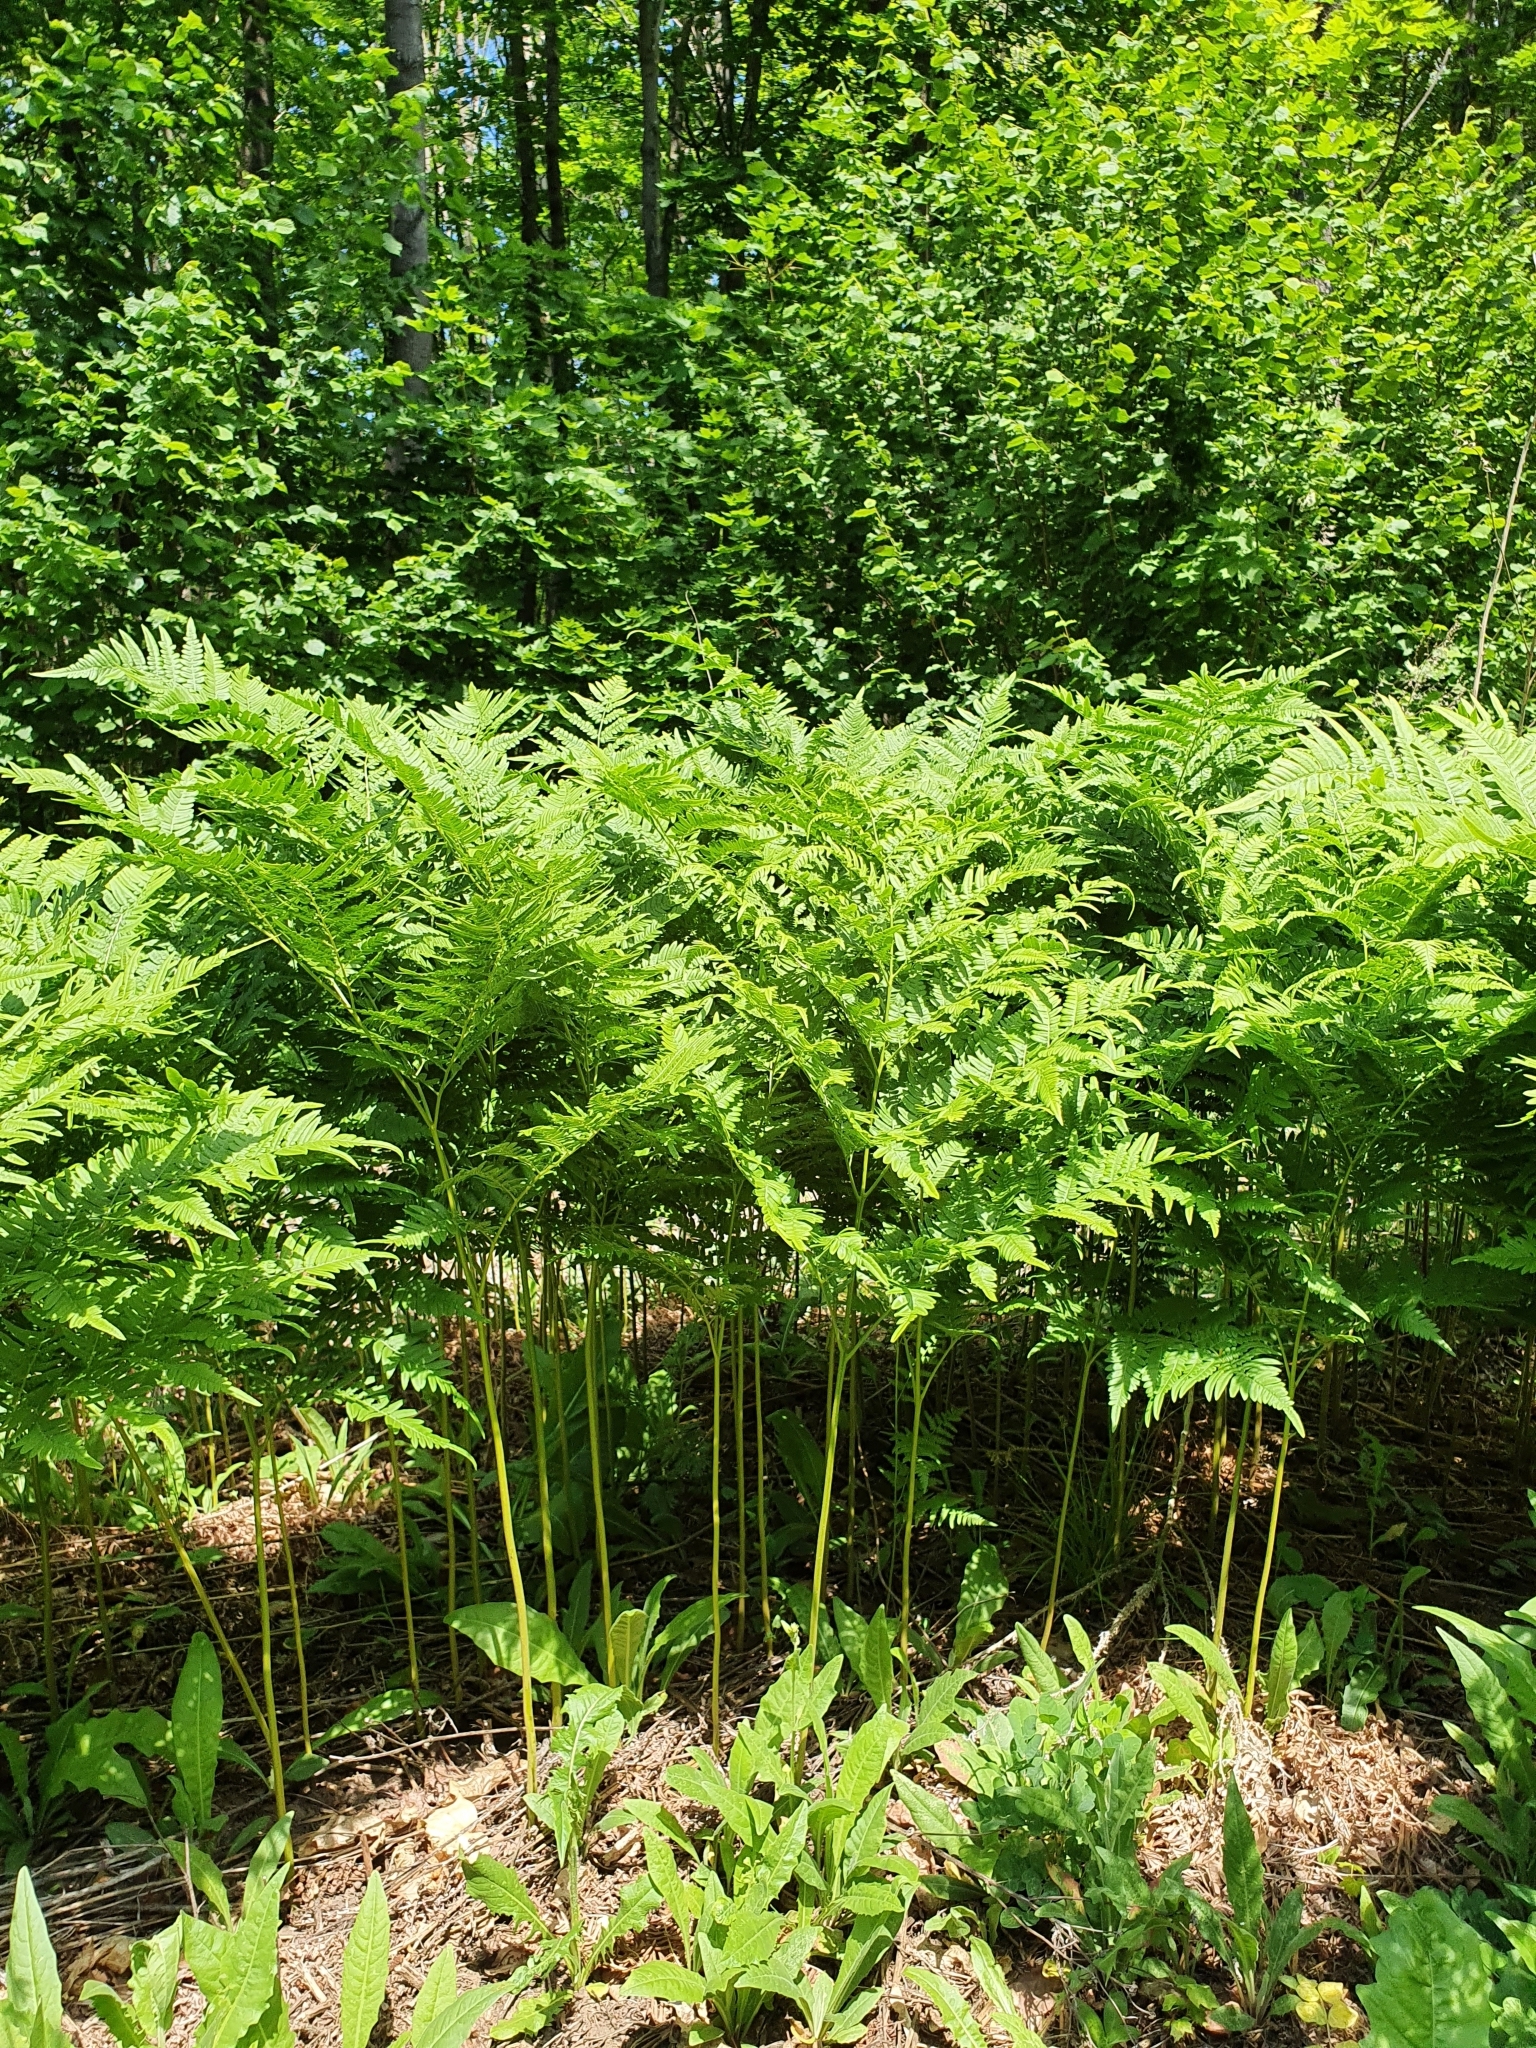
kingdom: Plantae
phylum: Tracheophyta
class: Polypodiopsida
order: Polypodiales
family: Dennstaedtiaceae
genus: Pteridium
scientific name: Pteridium aquilinum
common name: Bracken
